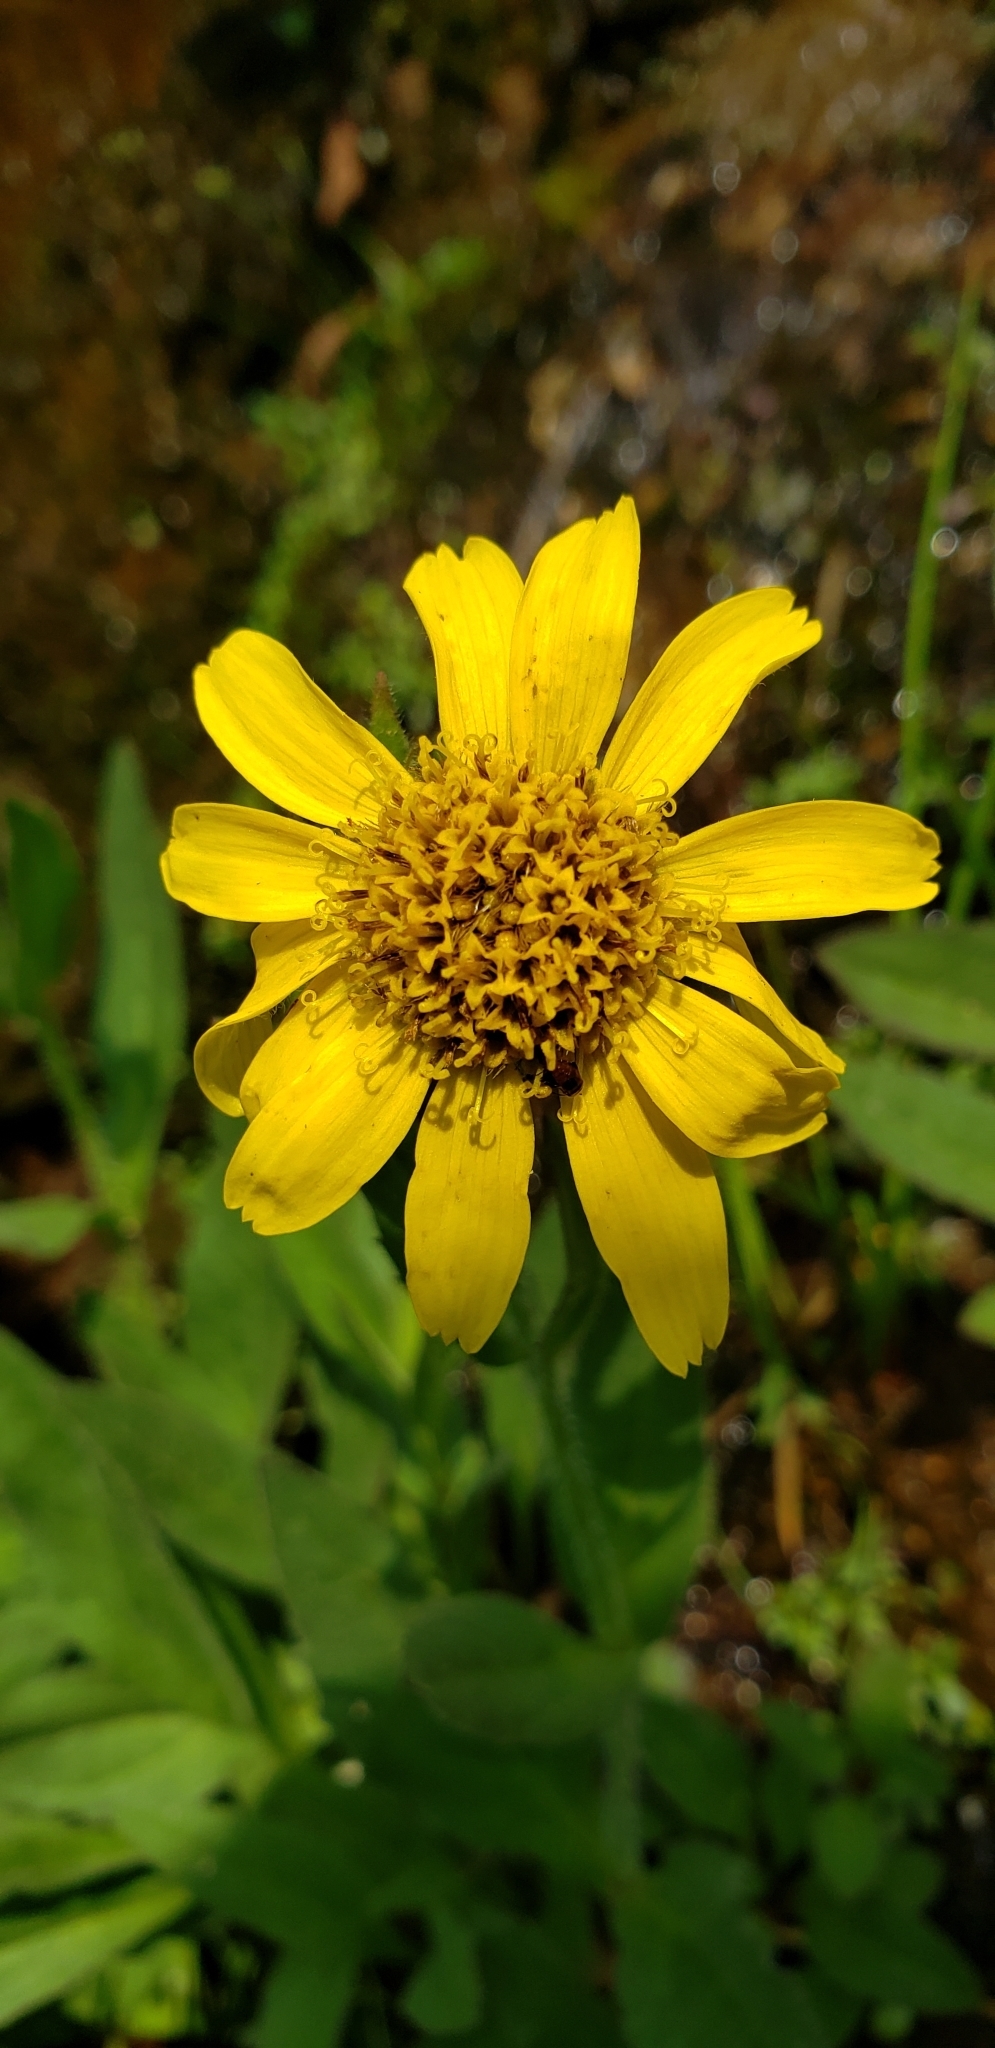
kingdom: Plantae
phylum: Tracheophyta
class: Magnoliopsida
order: Asterales
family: Asteraceae
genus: Arnica
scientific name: Arnica lanceolata
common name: Lance-leaved arnica
